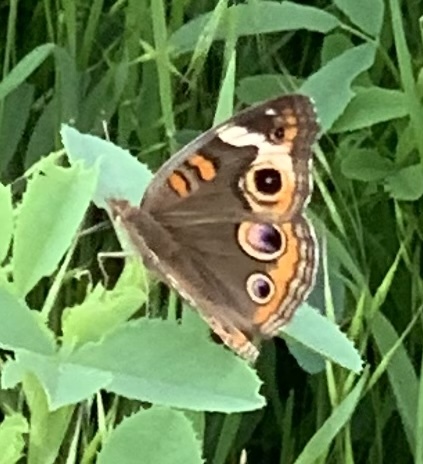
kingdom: Animalia
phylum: Arthropoda
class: Insecta
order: Lepidoptera
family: Nymphalidae
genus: Junonia
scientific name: Junonia coenia
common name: Common buckeye
